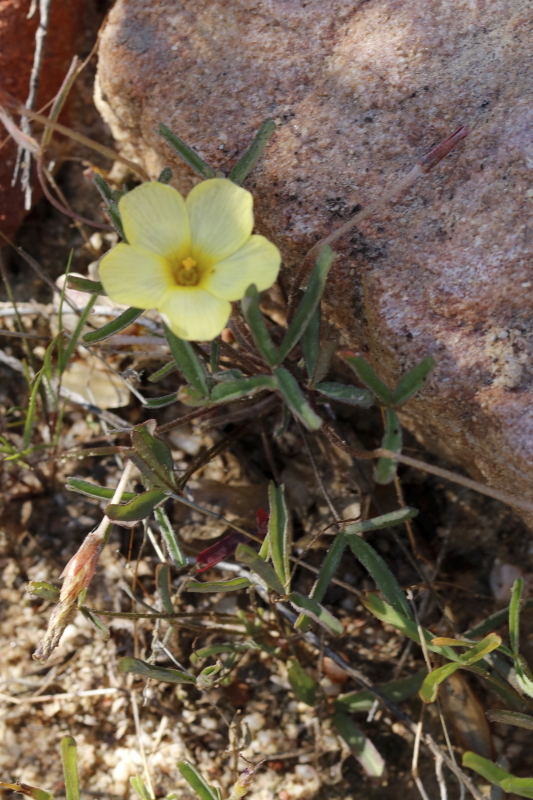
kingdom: Plantae
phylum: Tracheophyta
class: Magnoliopsida
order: Oxalidales
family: Oxalidaceae
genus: Oxalis
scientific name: Oxalis obtusa
